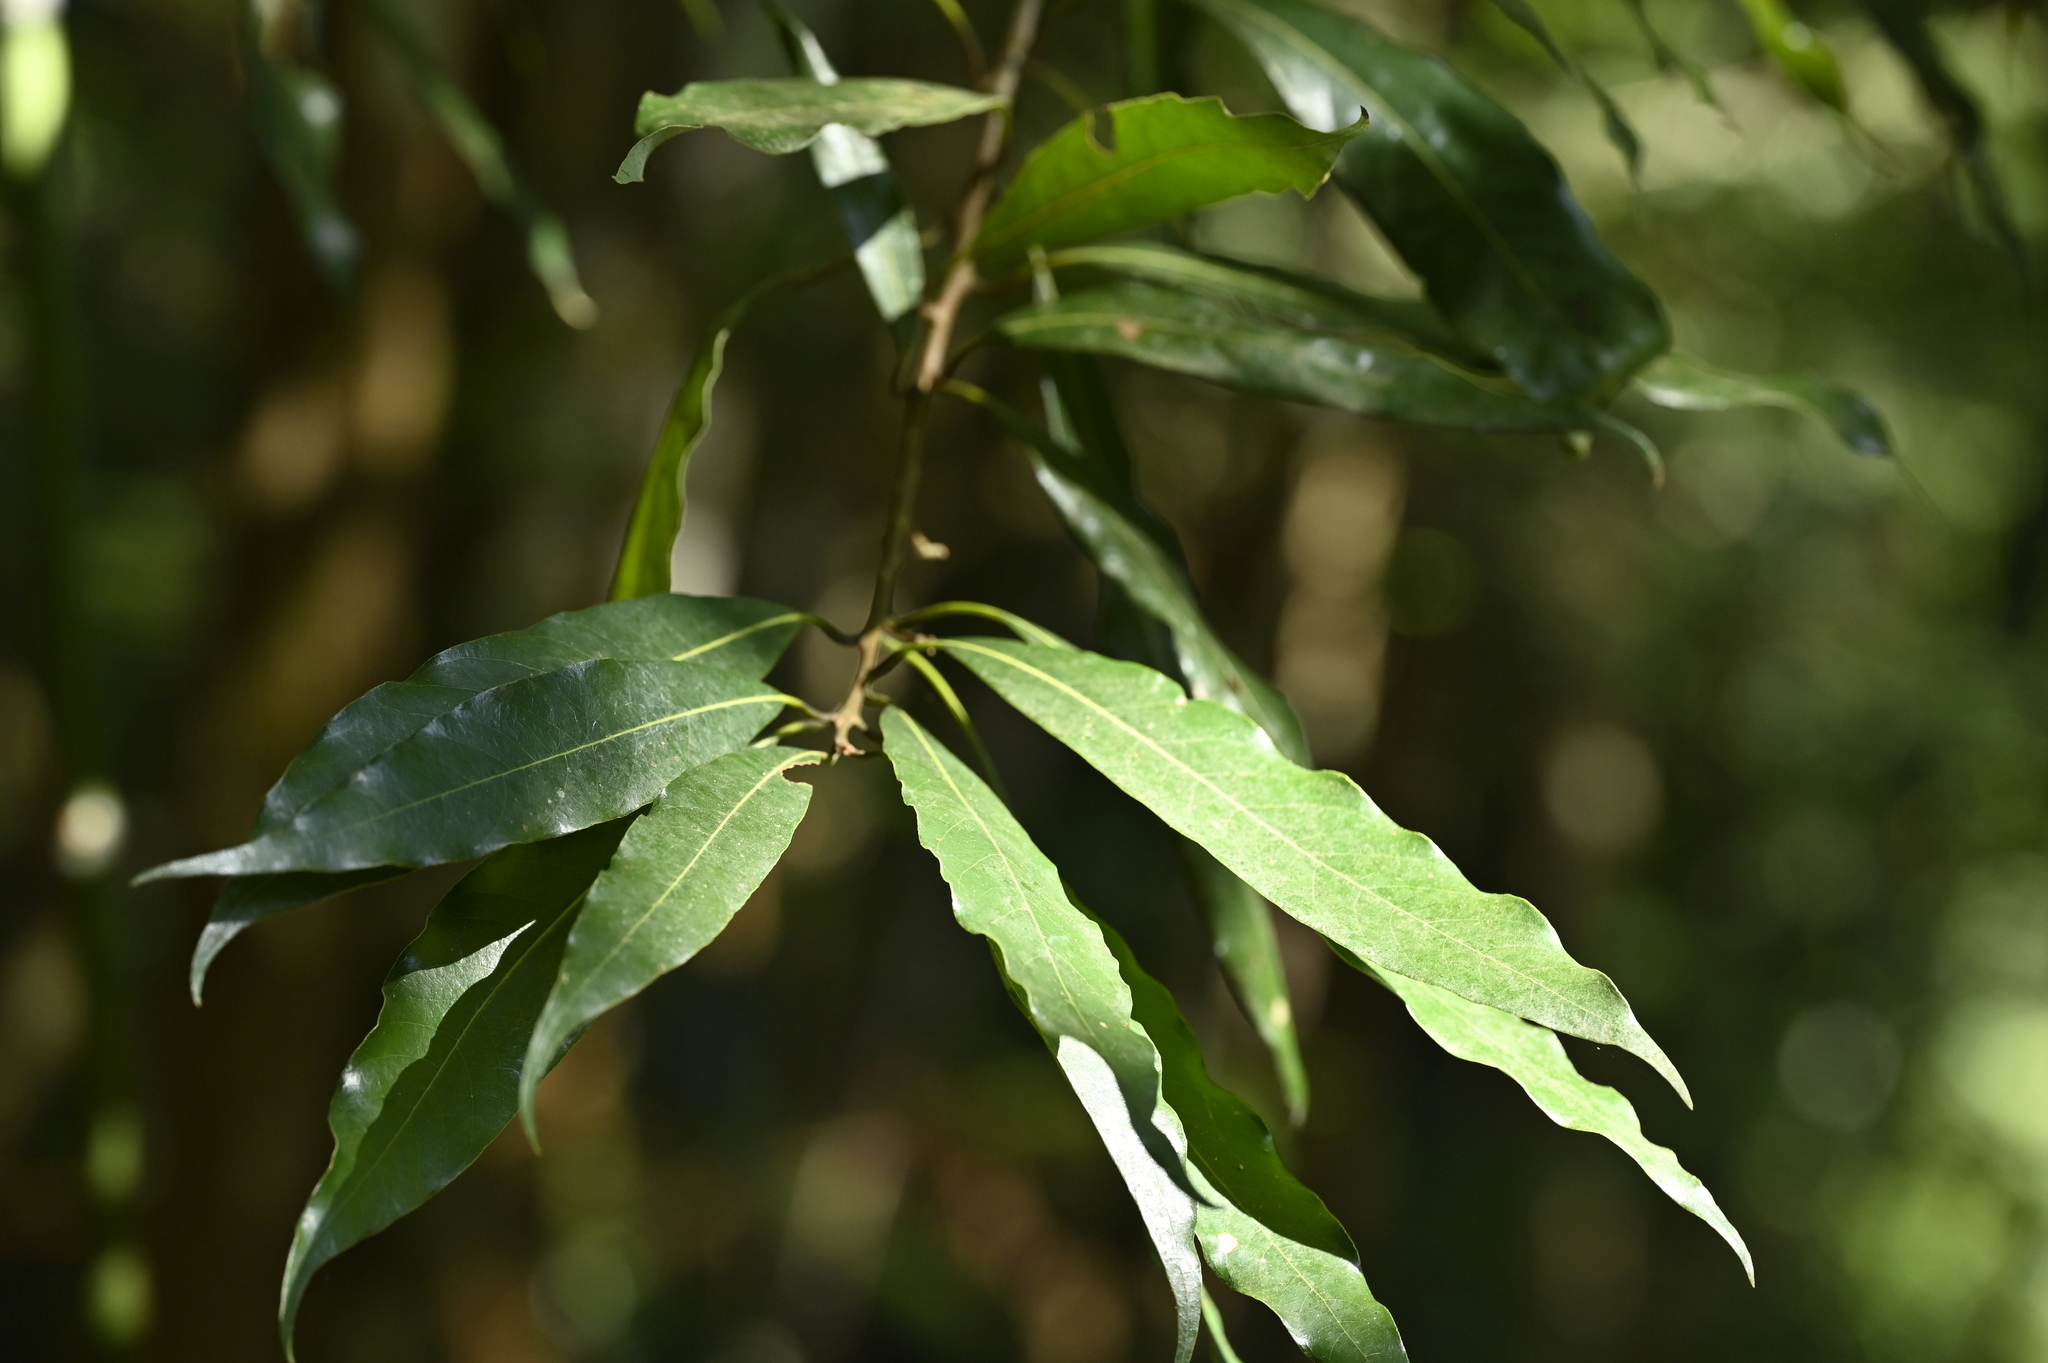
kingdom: Plantae
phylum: Tracheophyta
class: Magnoliopsida
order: Laurales
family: Lauraceae
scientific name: Lauraceae
